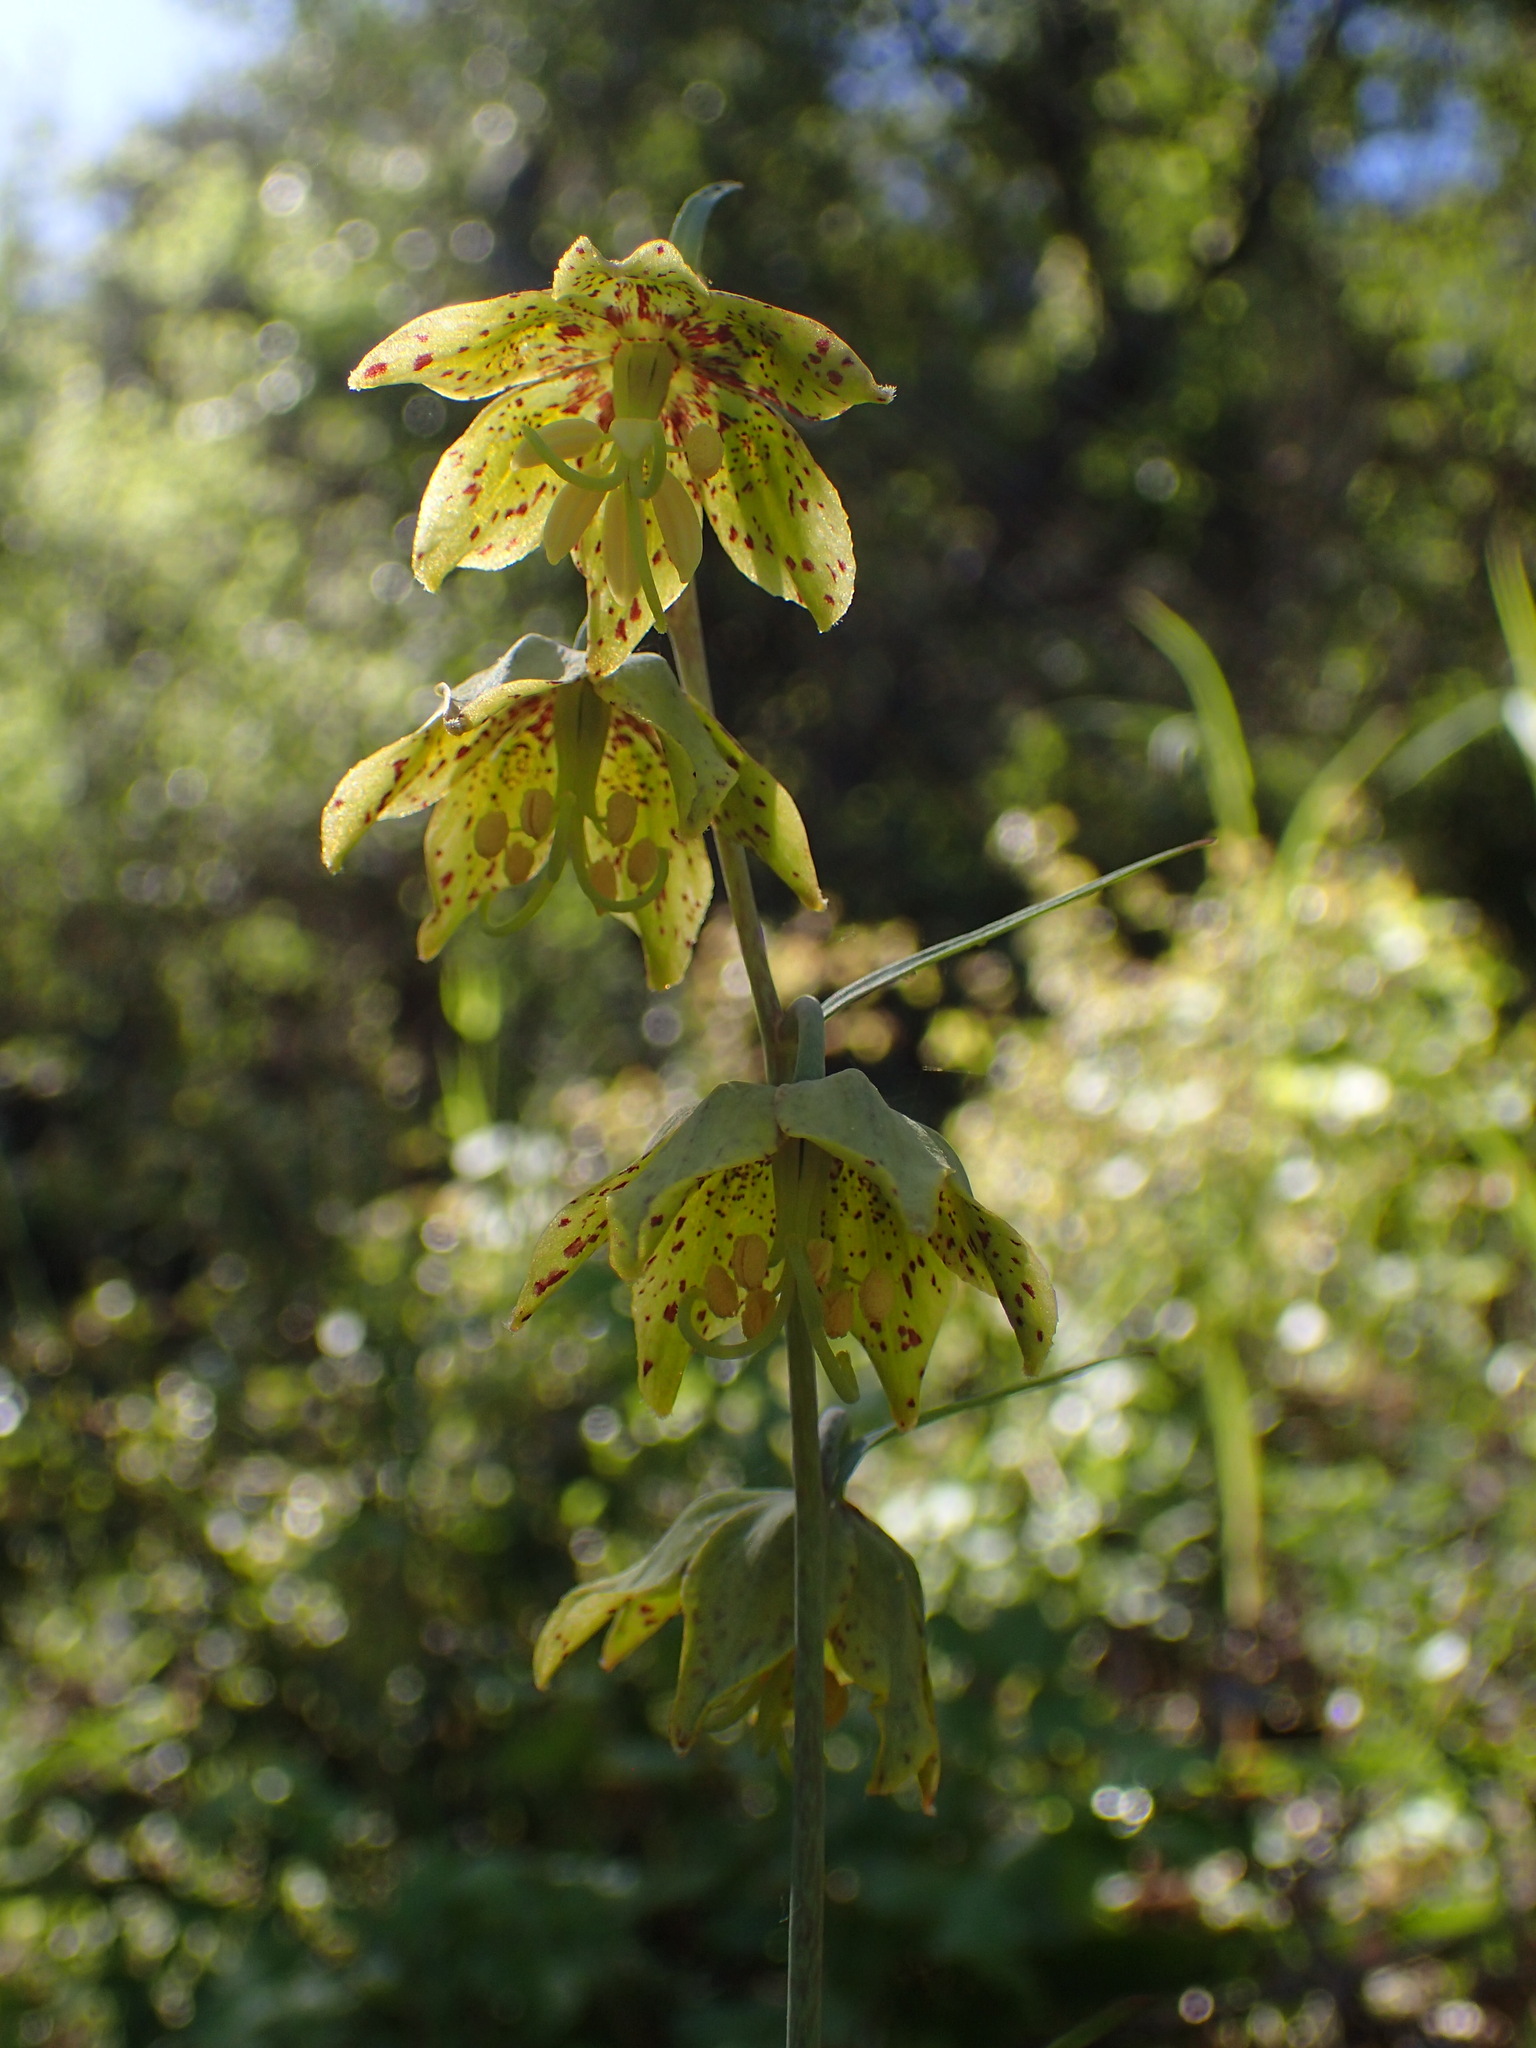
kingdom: Plantae
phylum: Tracheophyta
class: Liliopsida
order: Liliales
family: Liliaceae
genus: Fritillaria
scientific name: Fritillaria ojaiensis
